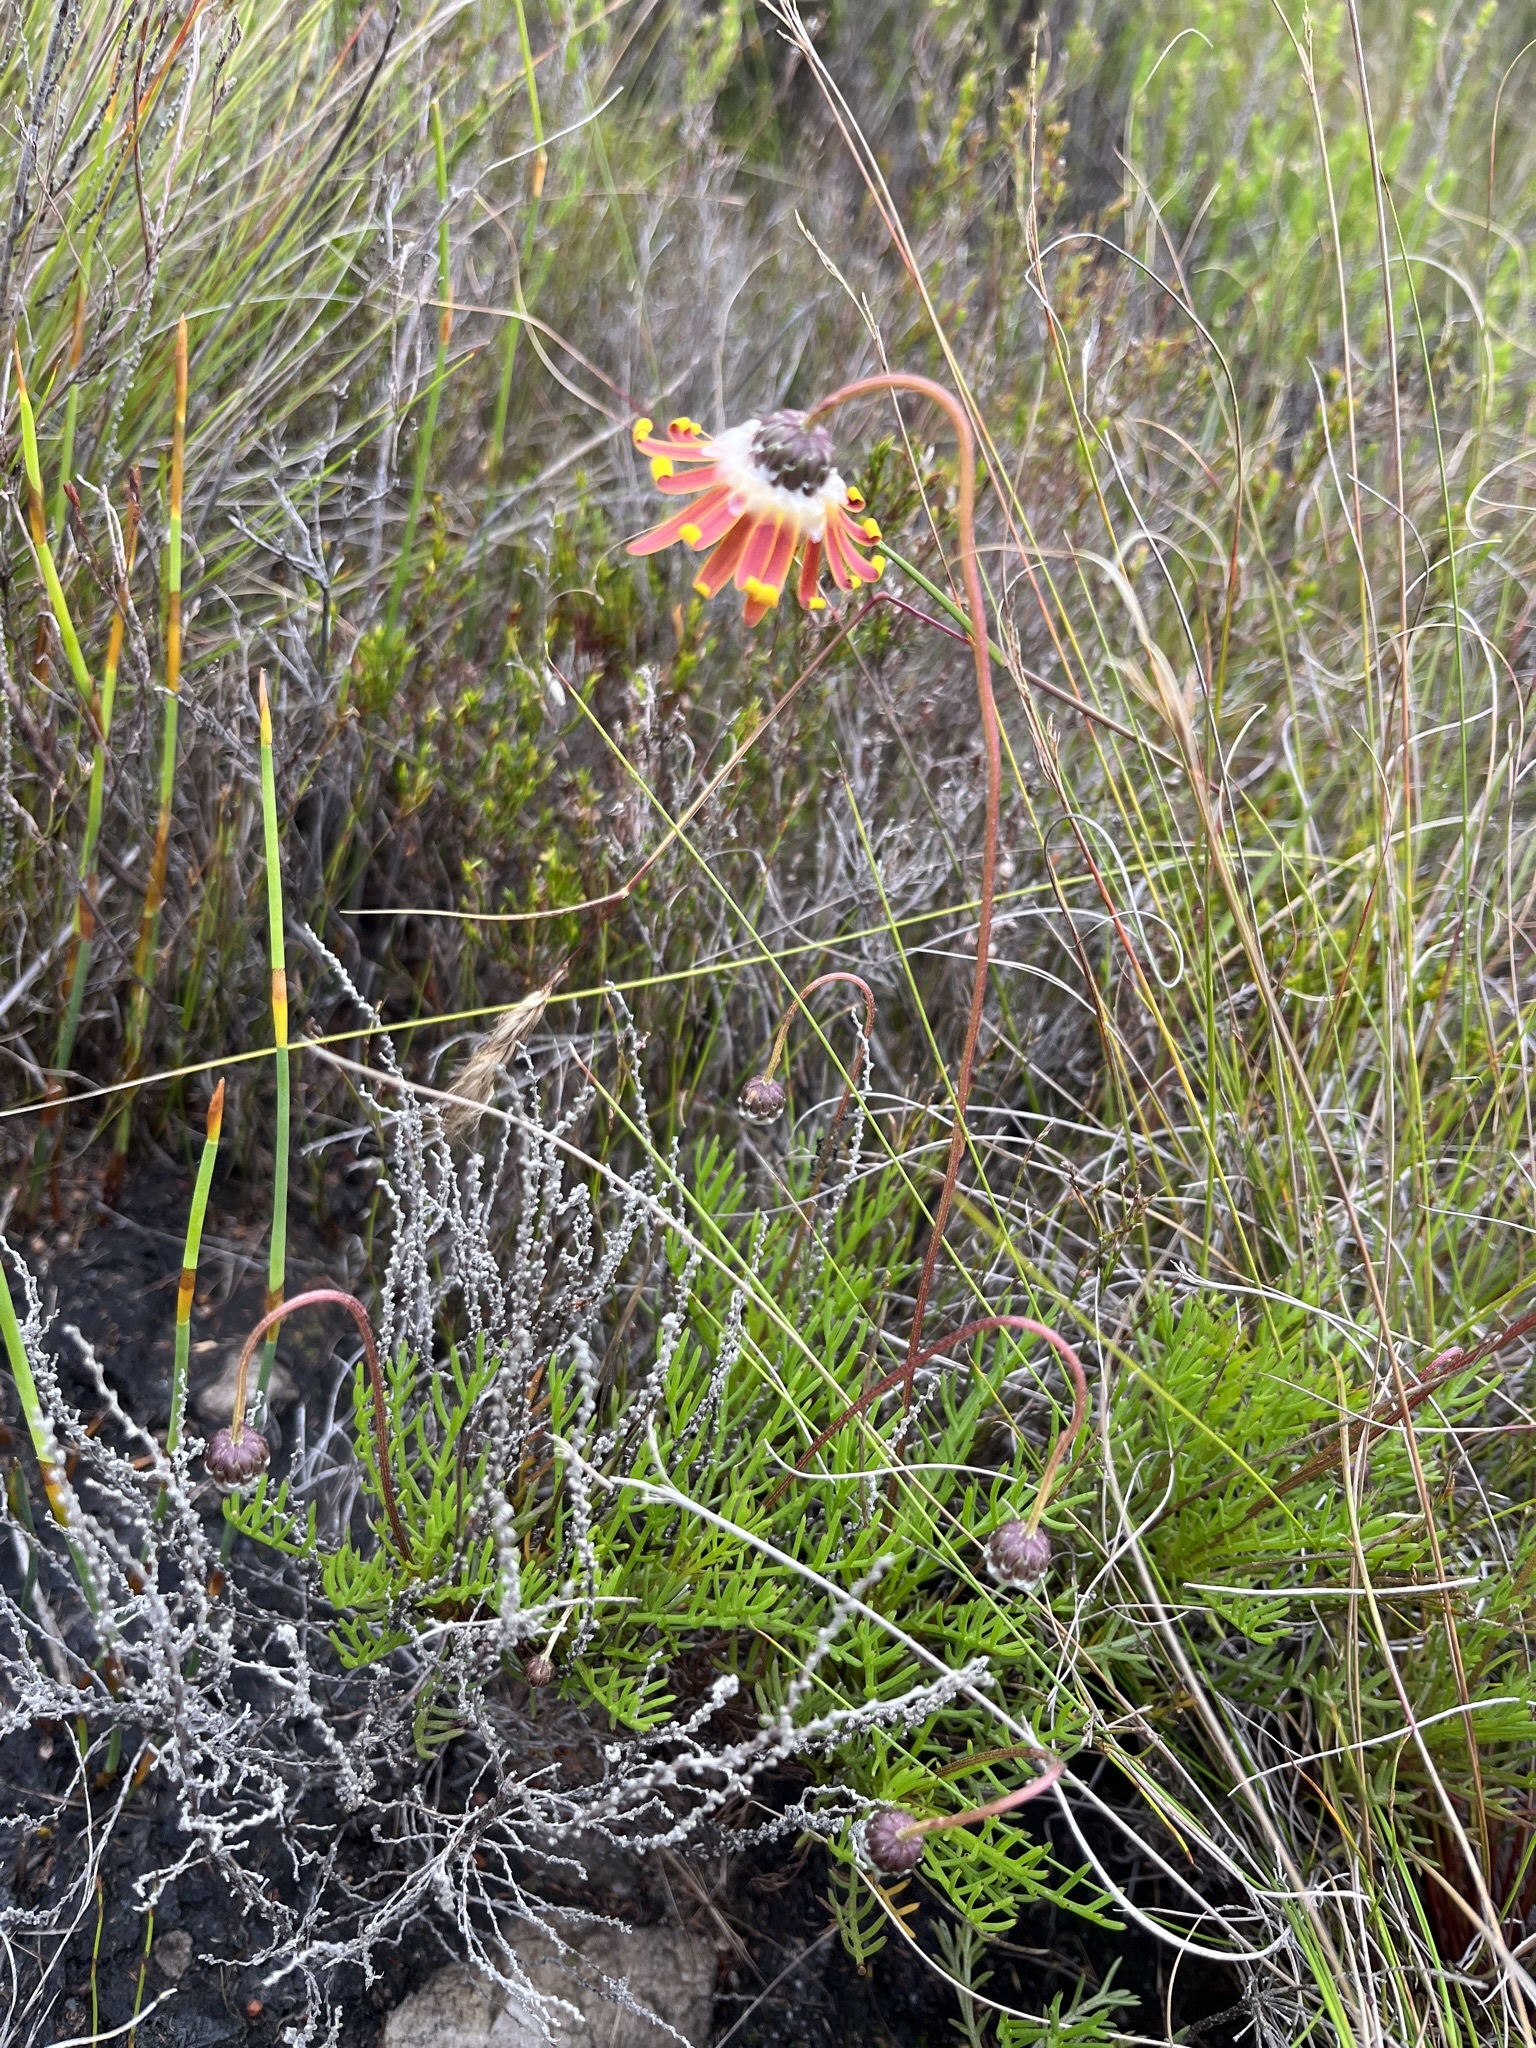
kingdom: Plantae
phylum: Tracheophyta
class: Magnoliopsida
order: Asterales
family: Asteraceae
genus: Ursinia
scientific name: Ursinia nudicaulis
